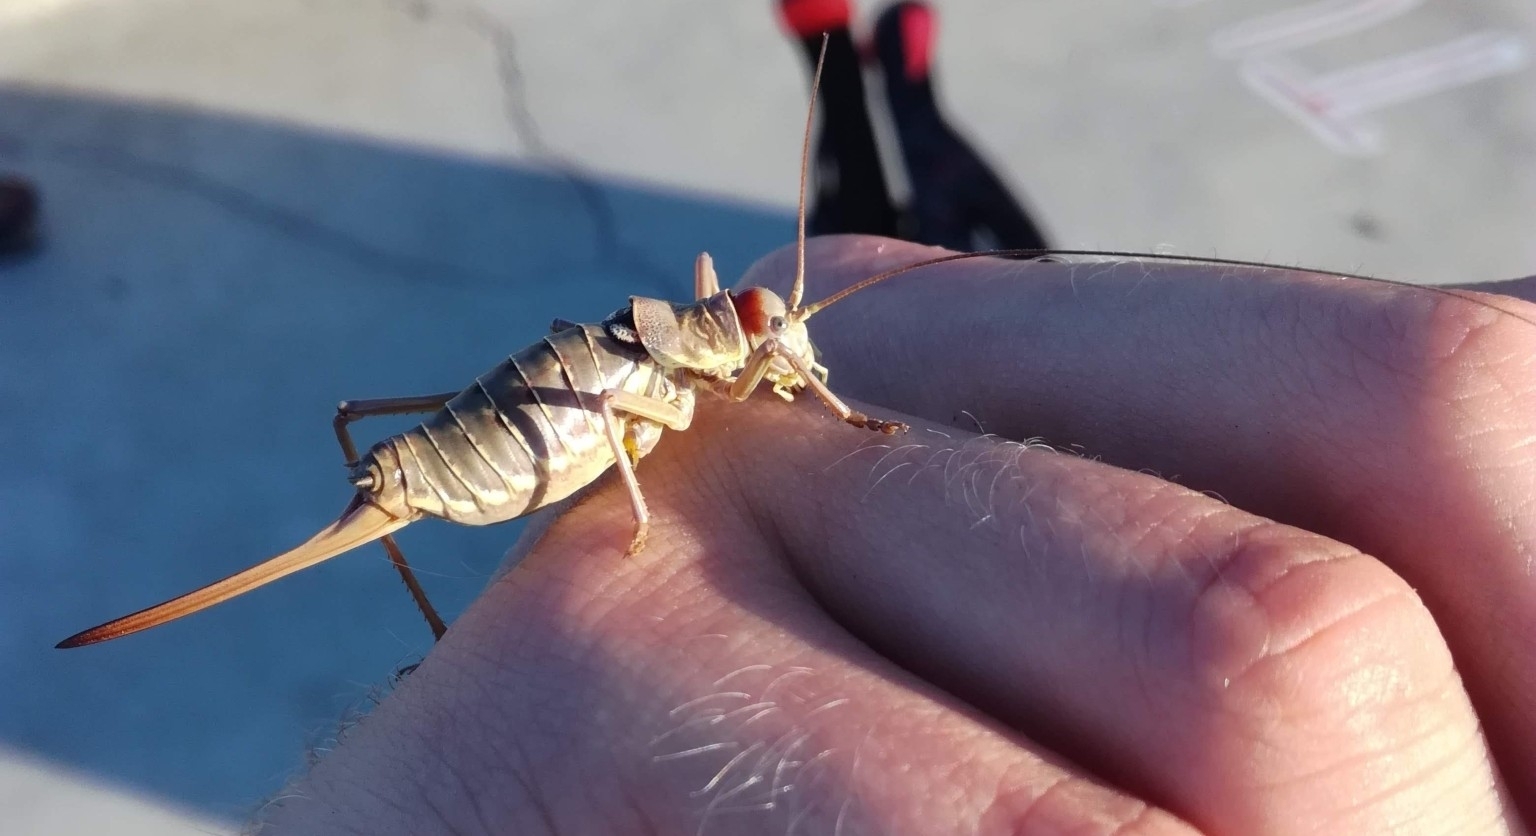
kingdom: Animalia
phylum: Arthropoda
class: Insecta
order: Orthoptera
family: Tettigoniidae
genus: Dinarippiger
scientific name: Dinarippiger discoidalis
